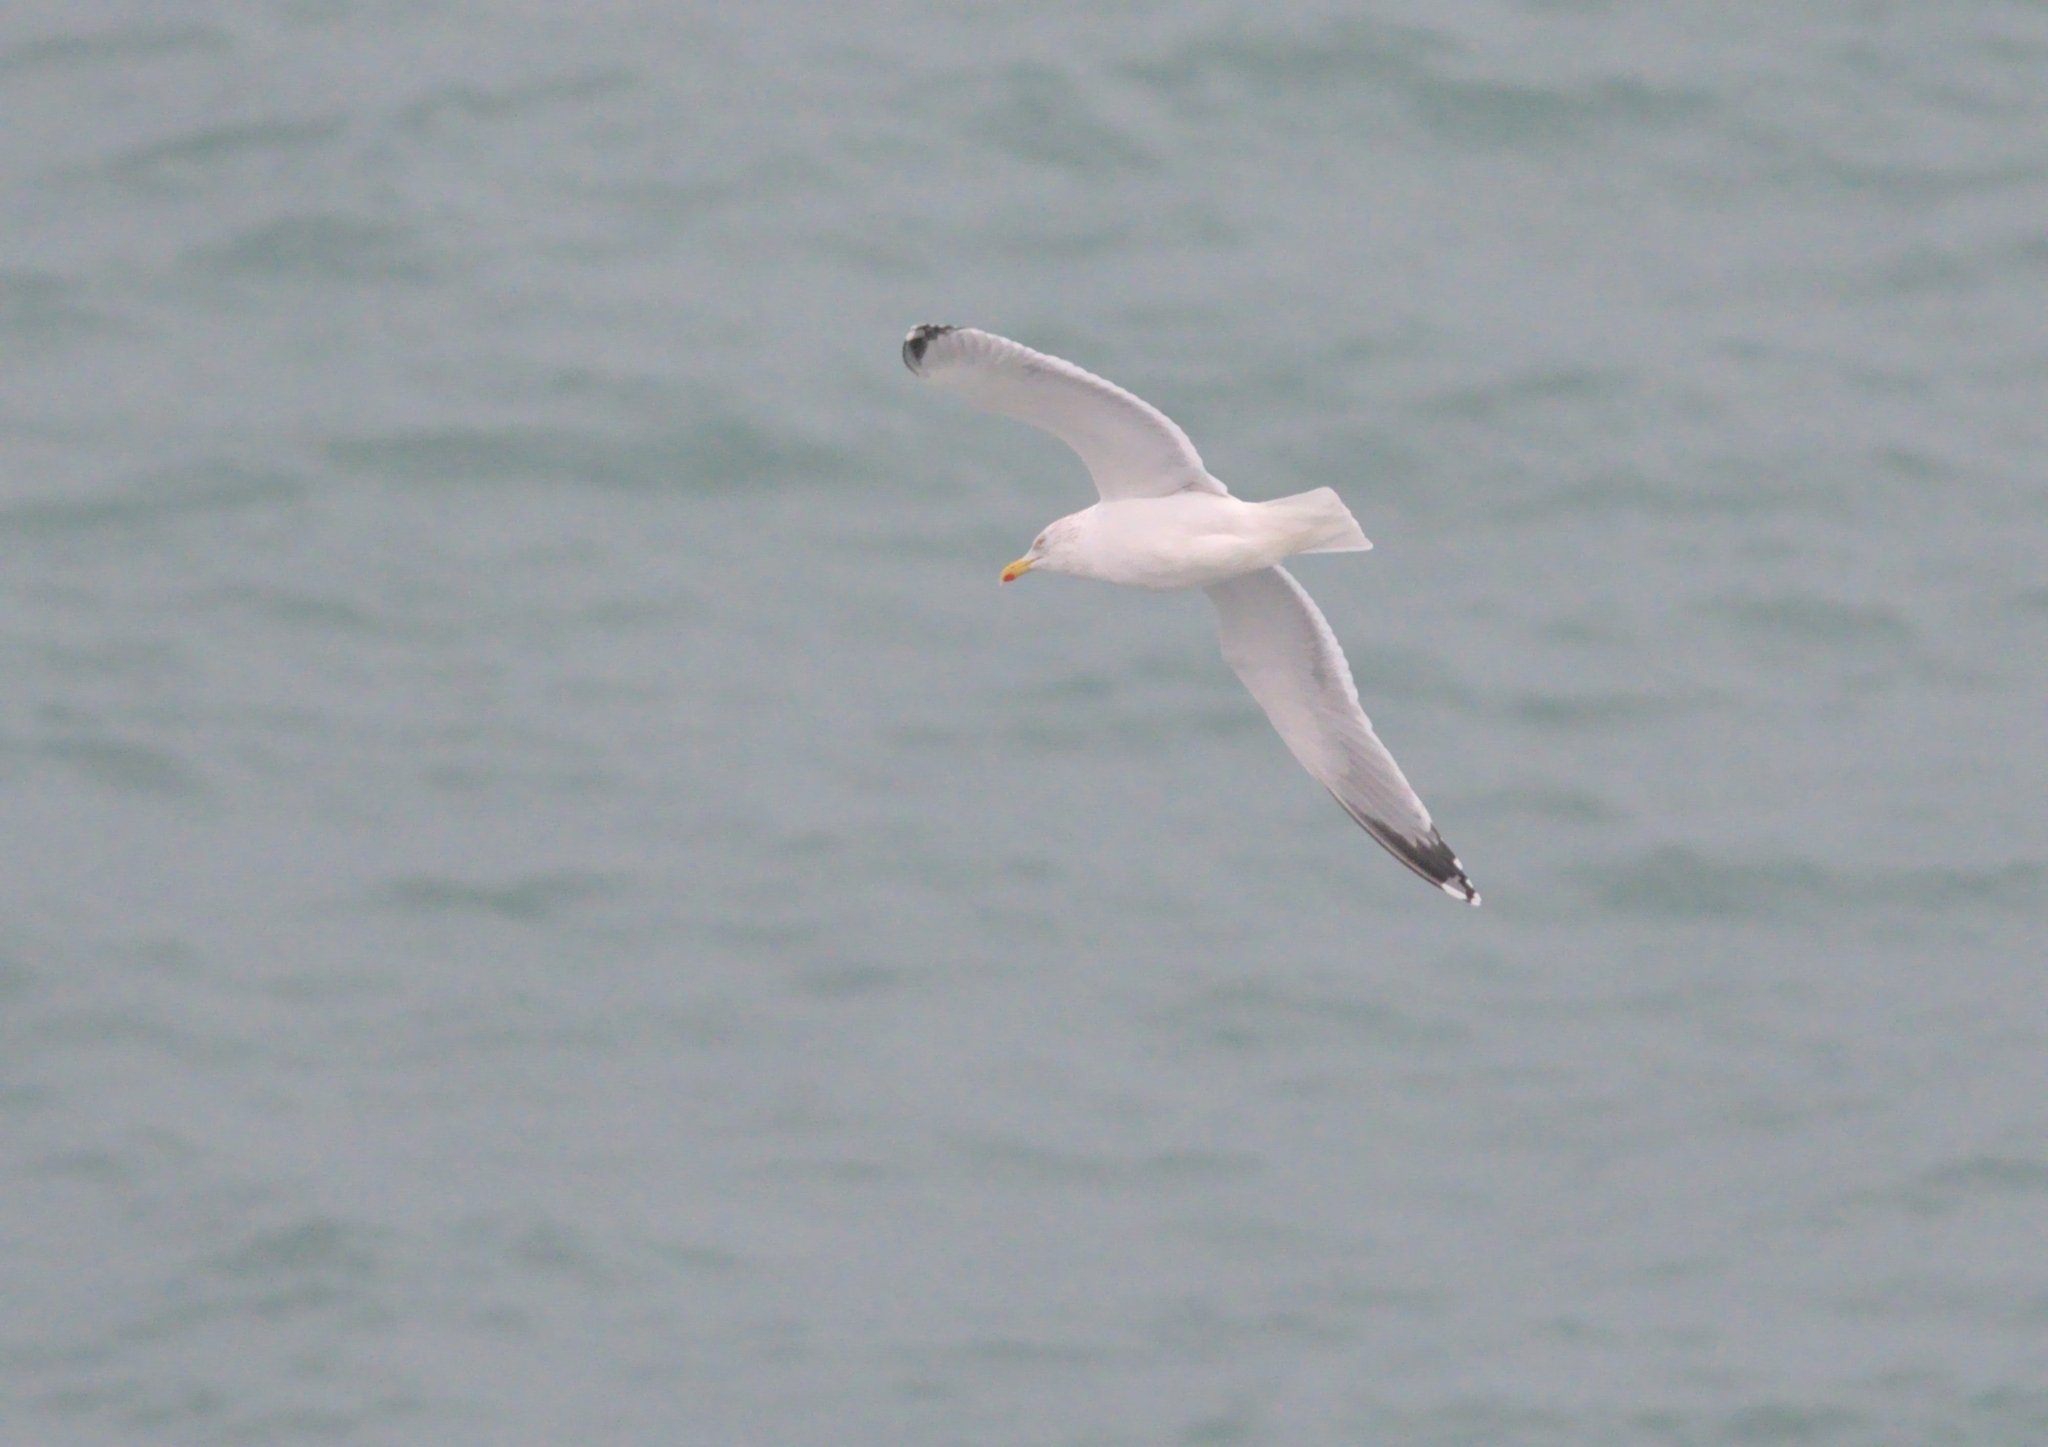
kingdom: Animalia
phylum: Chordata
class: Aves
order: Charadriiformes
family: Laridae
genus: Larus
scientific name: Larus argentatus
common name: Herring gull
